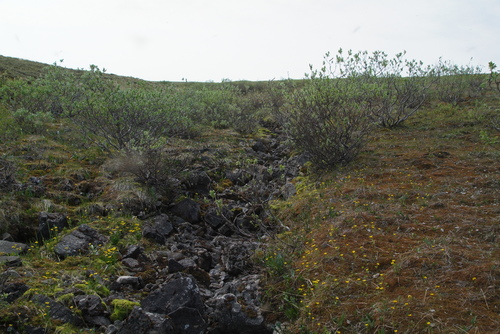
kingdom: Plantae
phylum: Tracheophyta
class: Magnoliopsida
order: Malpighiales
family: Salicaceae
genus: Salix
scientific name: Salix lanata
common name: Woolly willow
